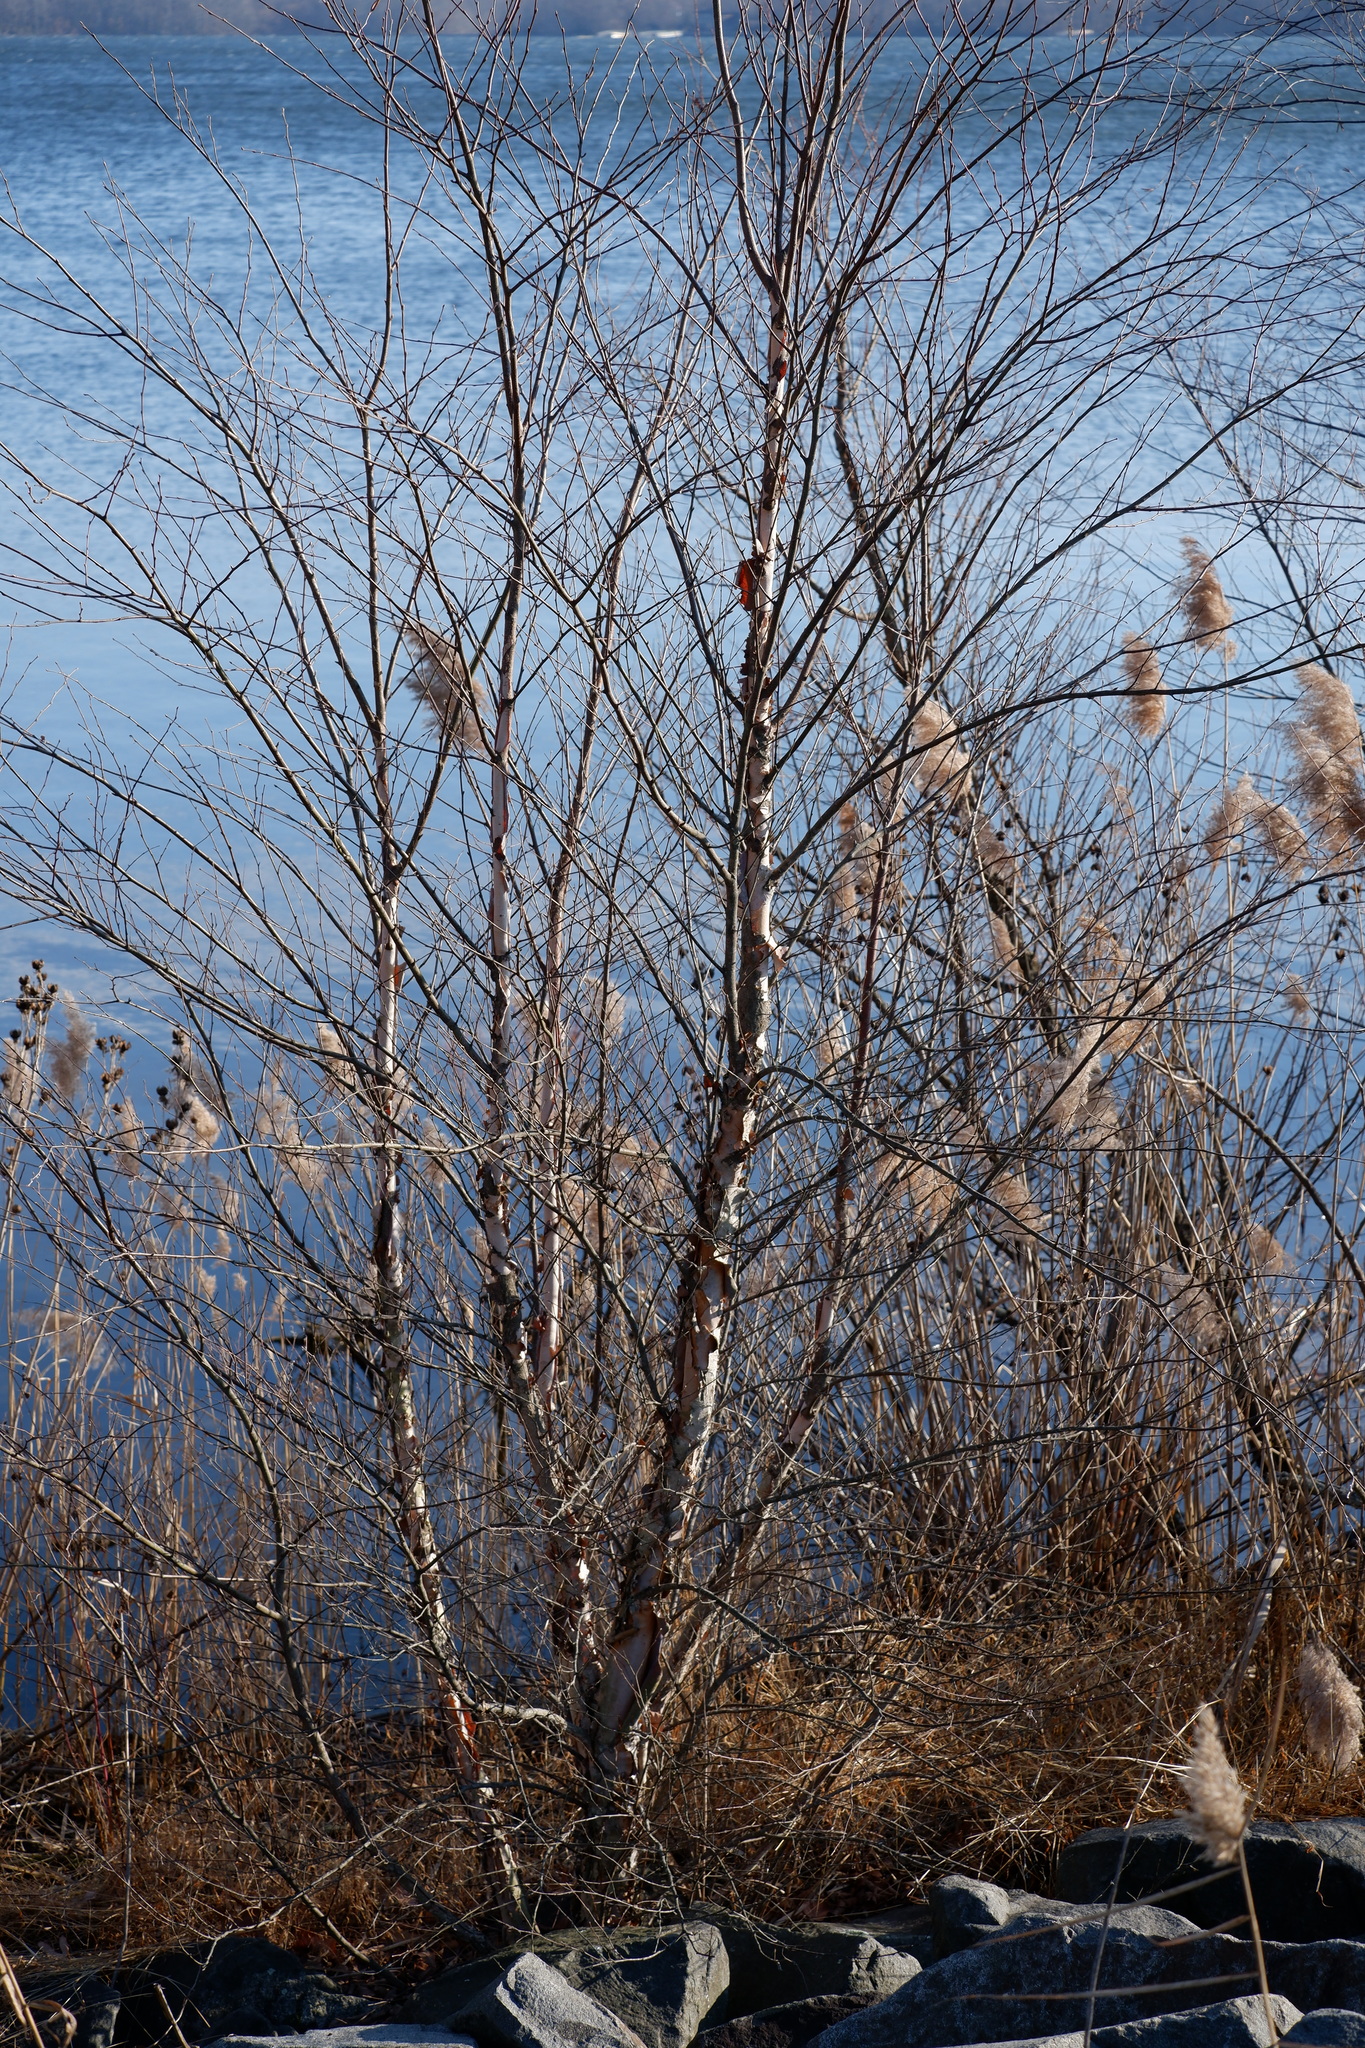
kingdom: Plantae
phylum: Tracheophyta
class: Magnoliopsida
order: Fagales
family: Betulaceae
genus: Betula
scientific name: Betula nigra
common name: Black birch
